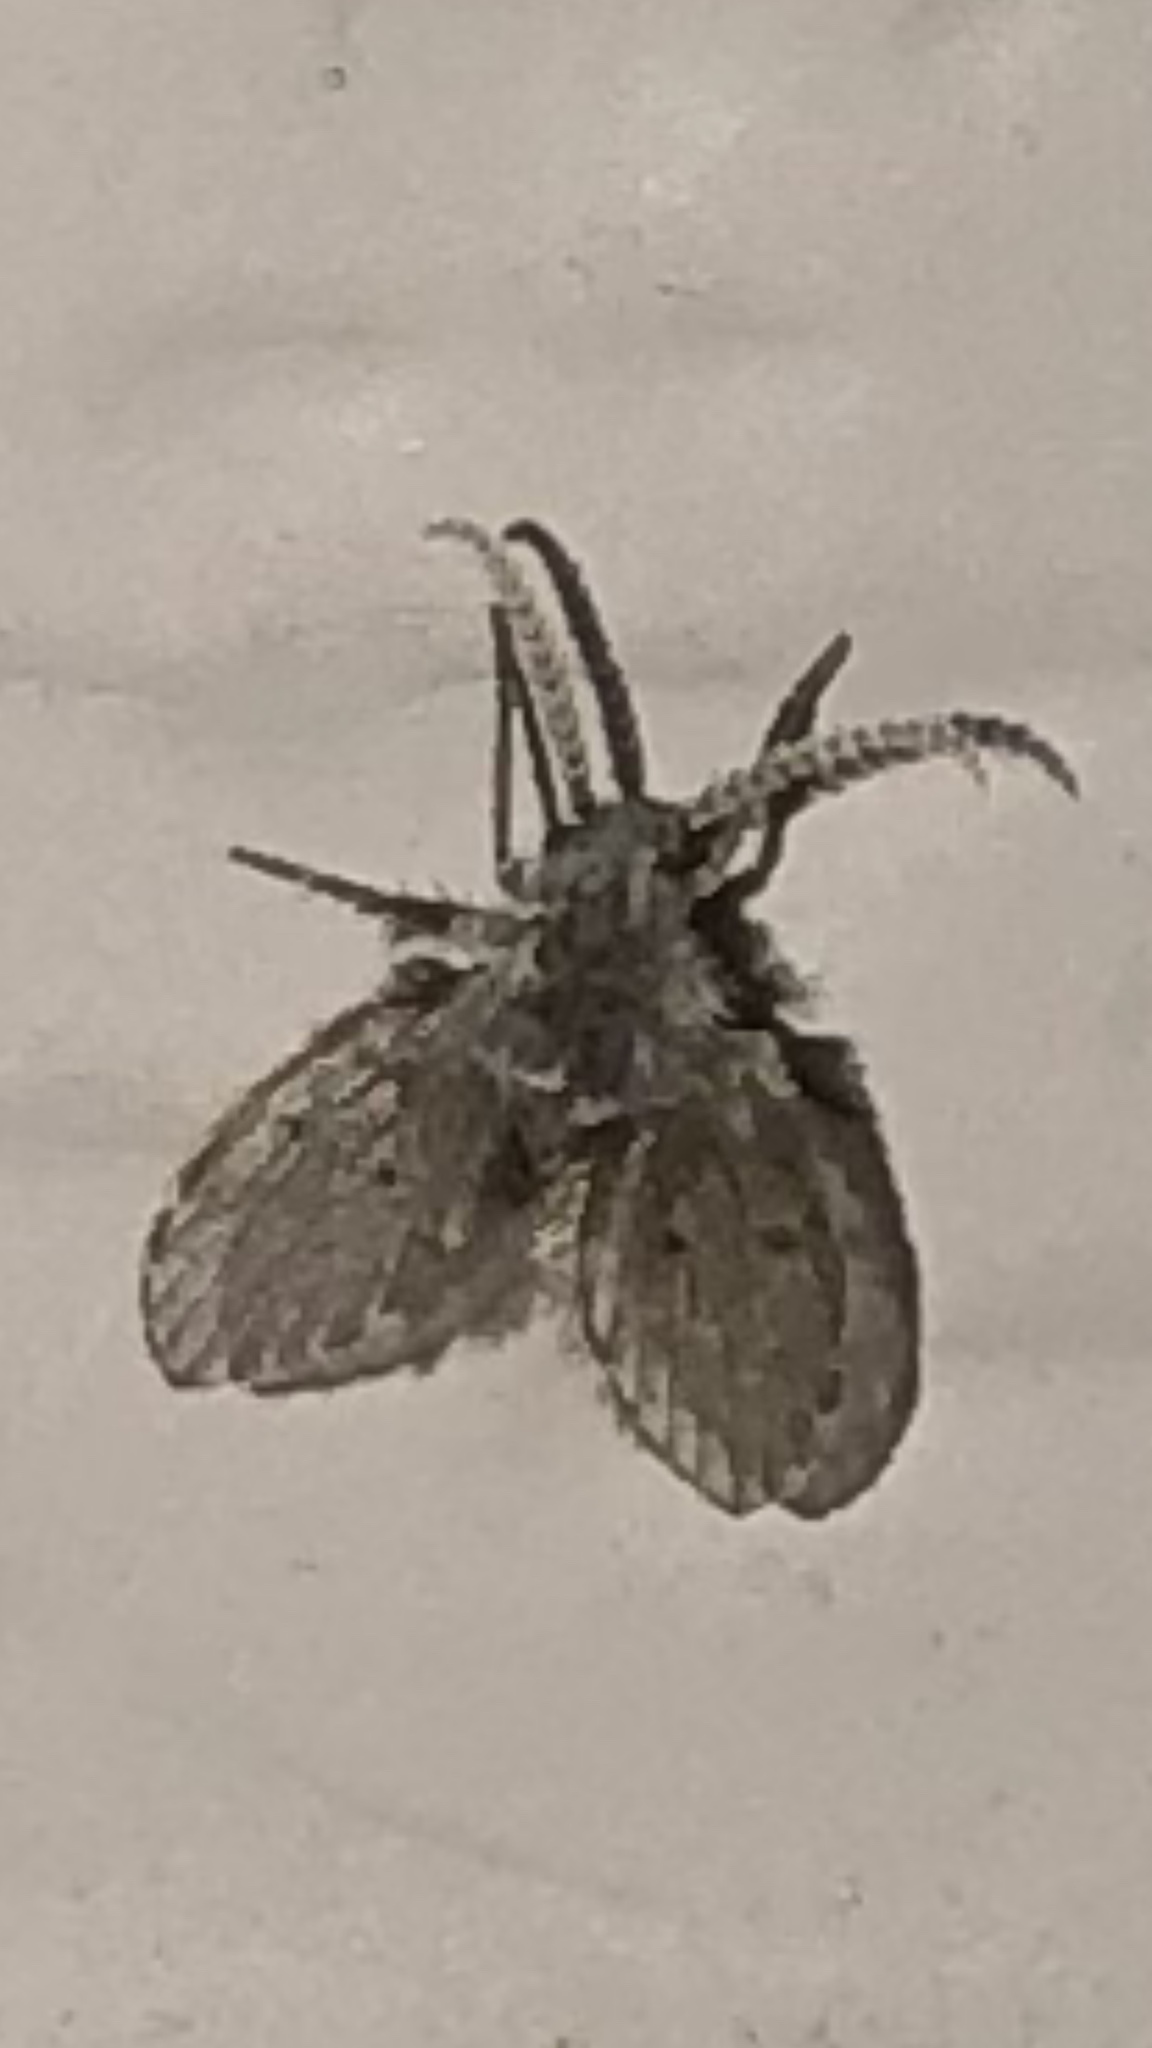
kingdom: Animalia
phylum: Arthropoda
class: Insecta
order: Diptera
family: Psychodidae
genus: Clogmia
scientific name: Clogmia albipunctatus
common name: White-spotted moth fly
